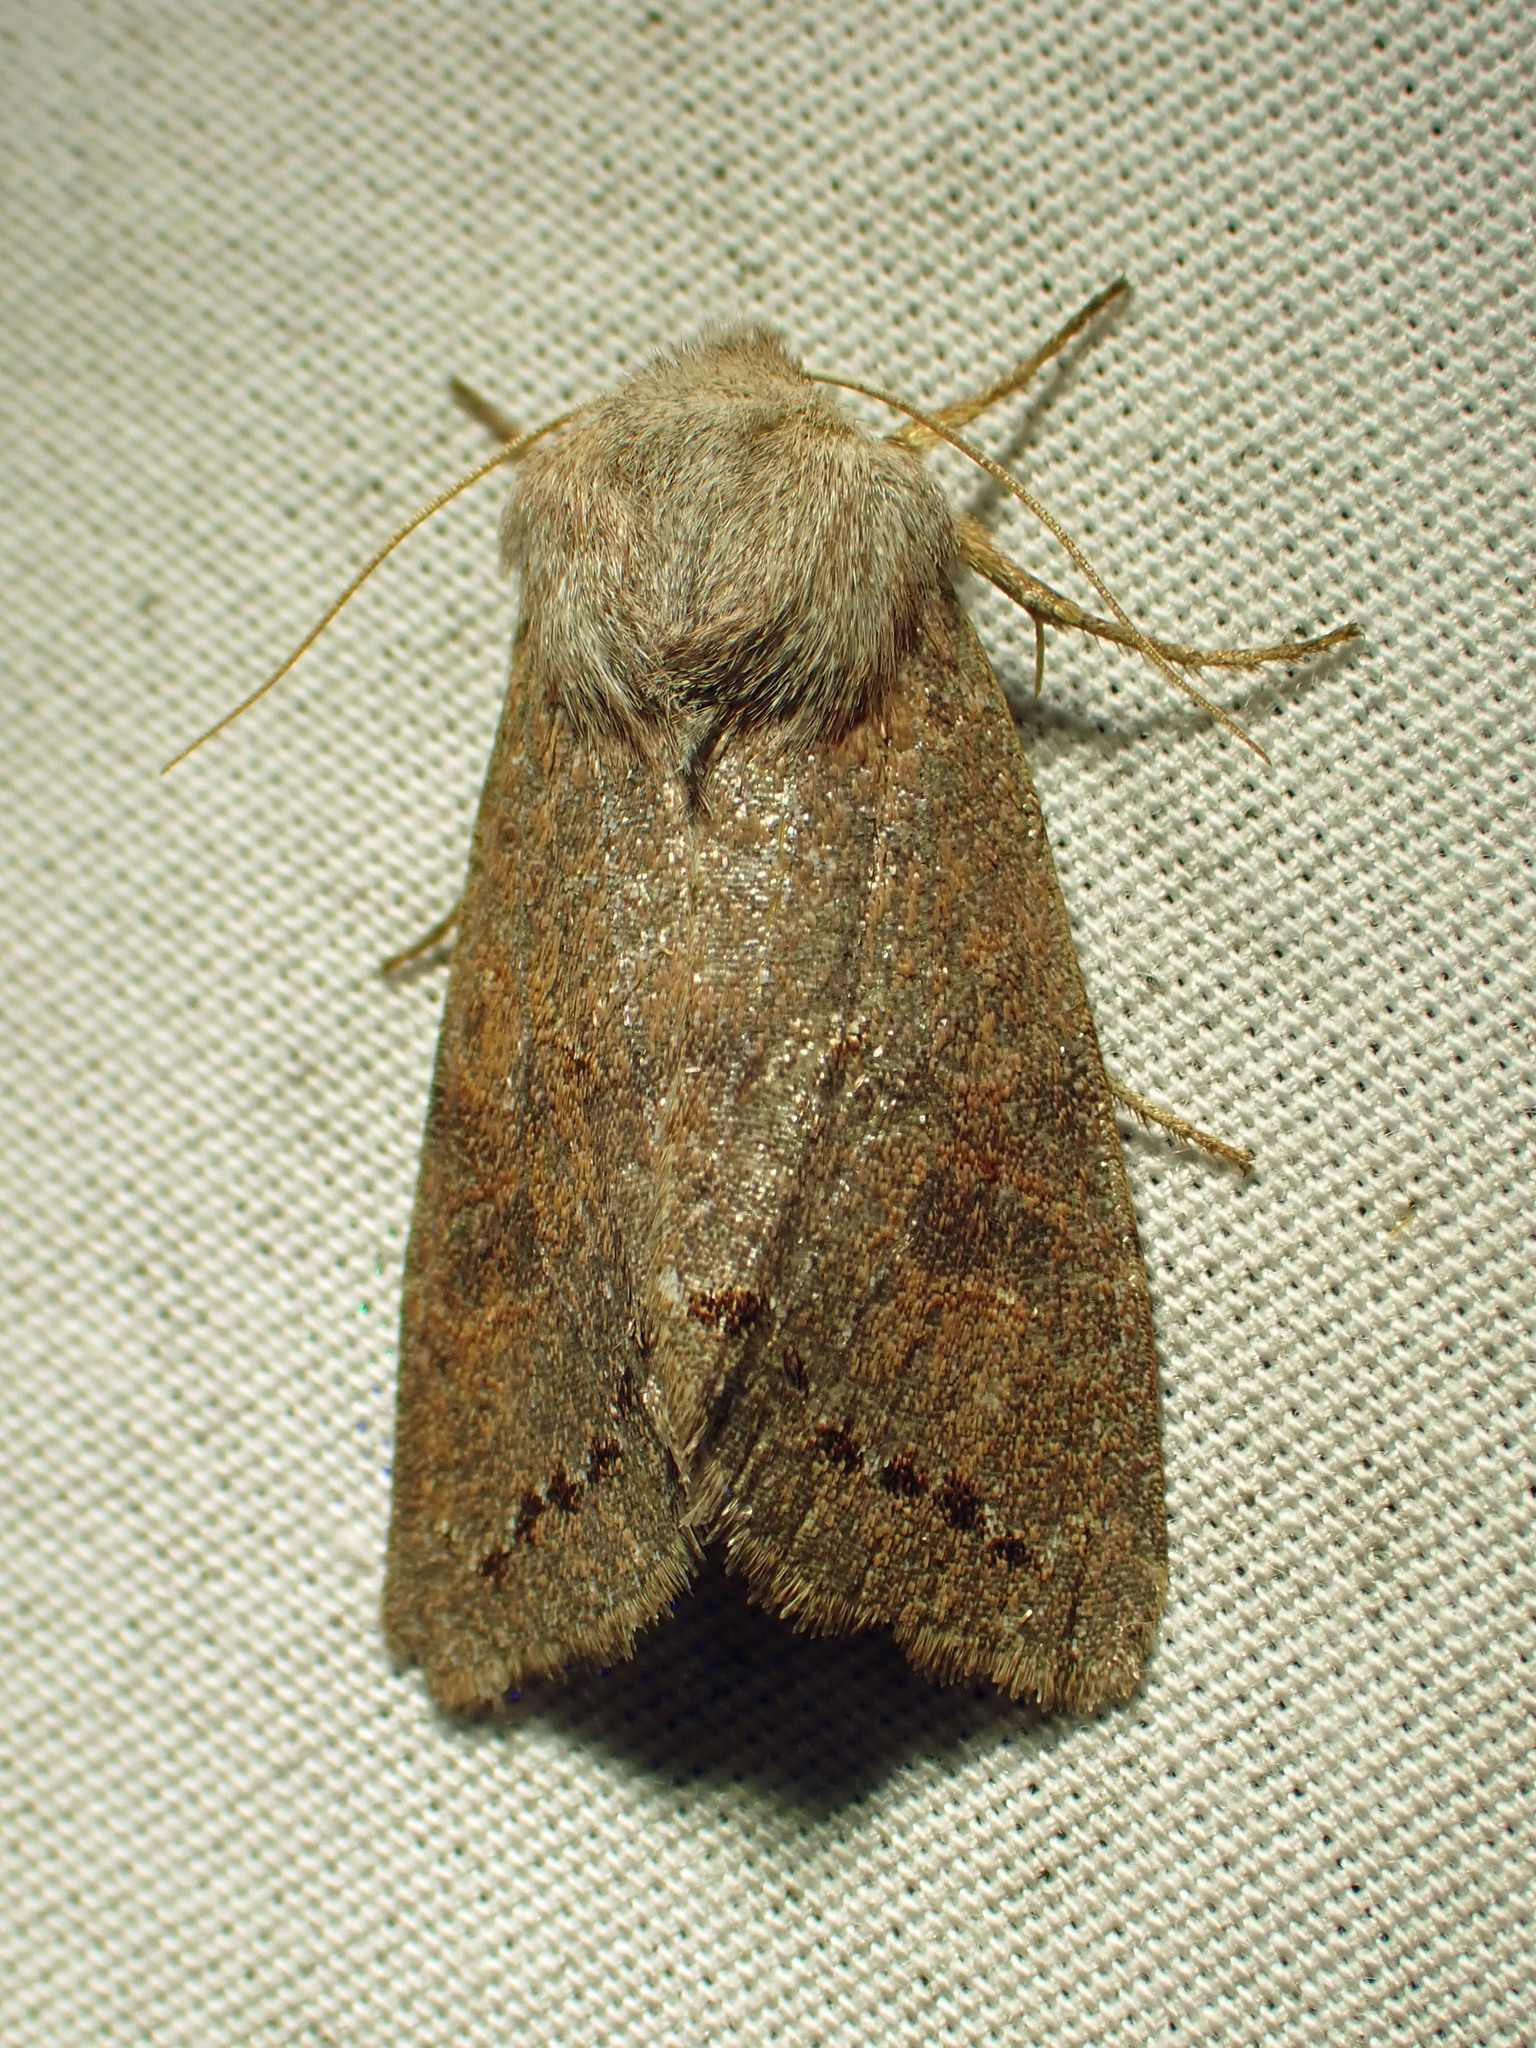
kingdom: Animalia
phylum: Arthropoda
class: Insecta
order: Lepidoptera
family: Noctuidae
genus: Orthosia
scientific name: Orthosia revicta
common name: Rusty whitesided caterpillar
